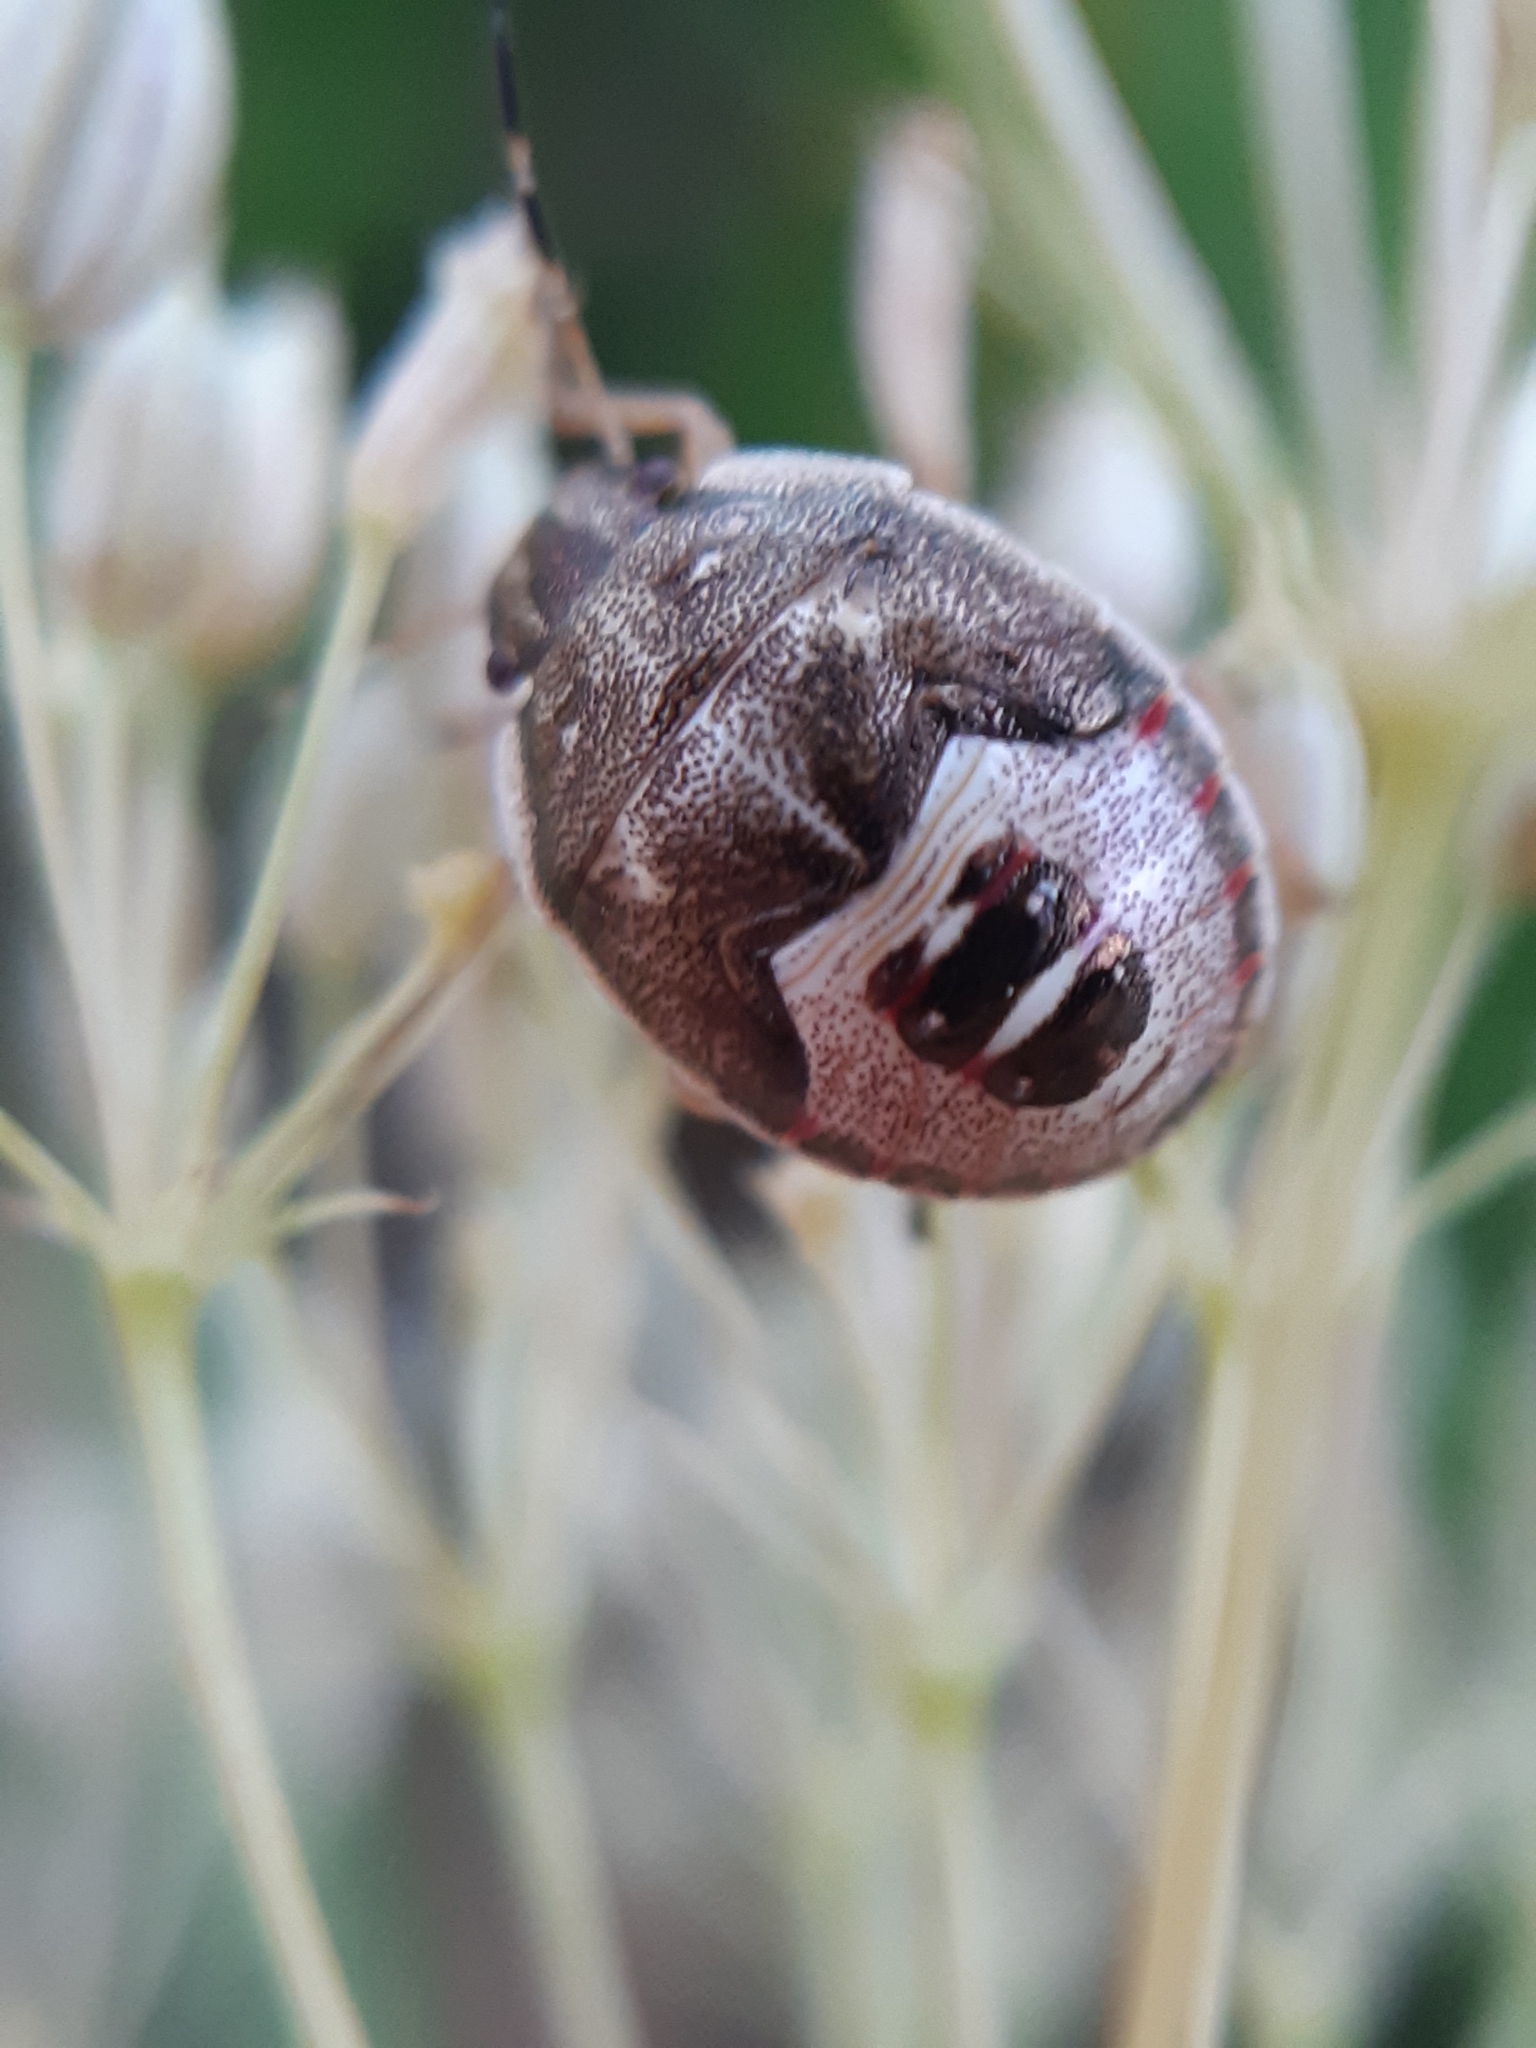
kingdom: Animalia
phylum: Arthropoda
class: Insecta
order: Hemiptera
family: Pentatomidae
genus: Holcostethus
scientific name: Holcostethus sphacelatus
